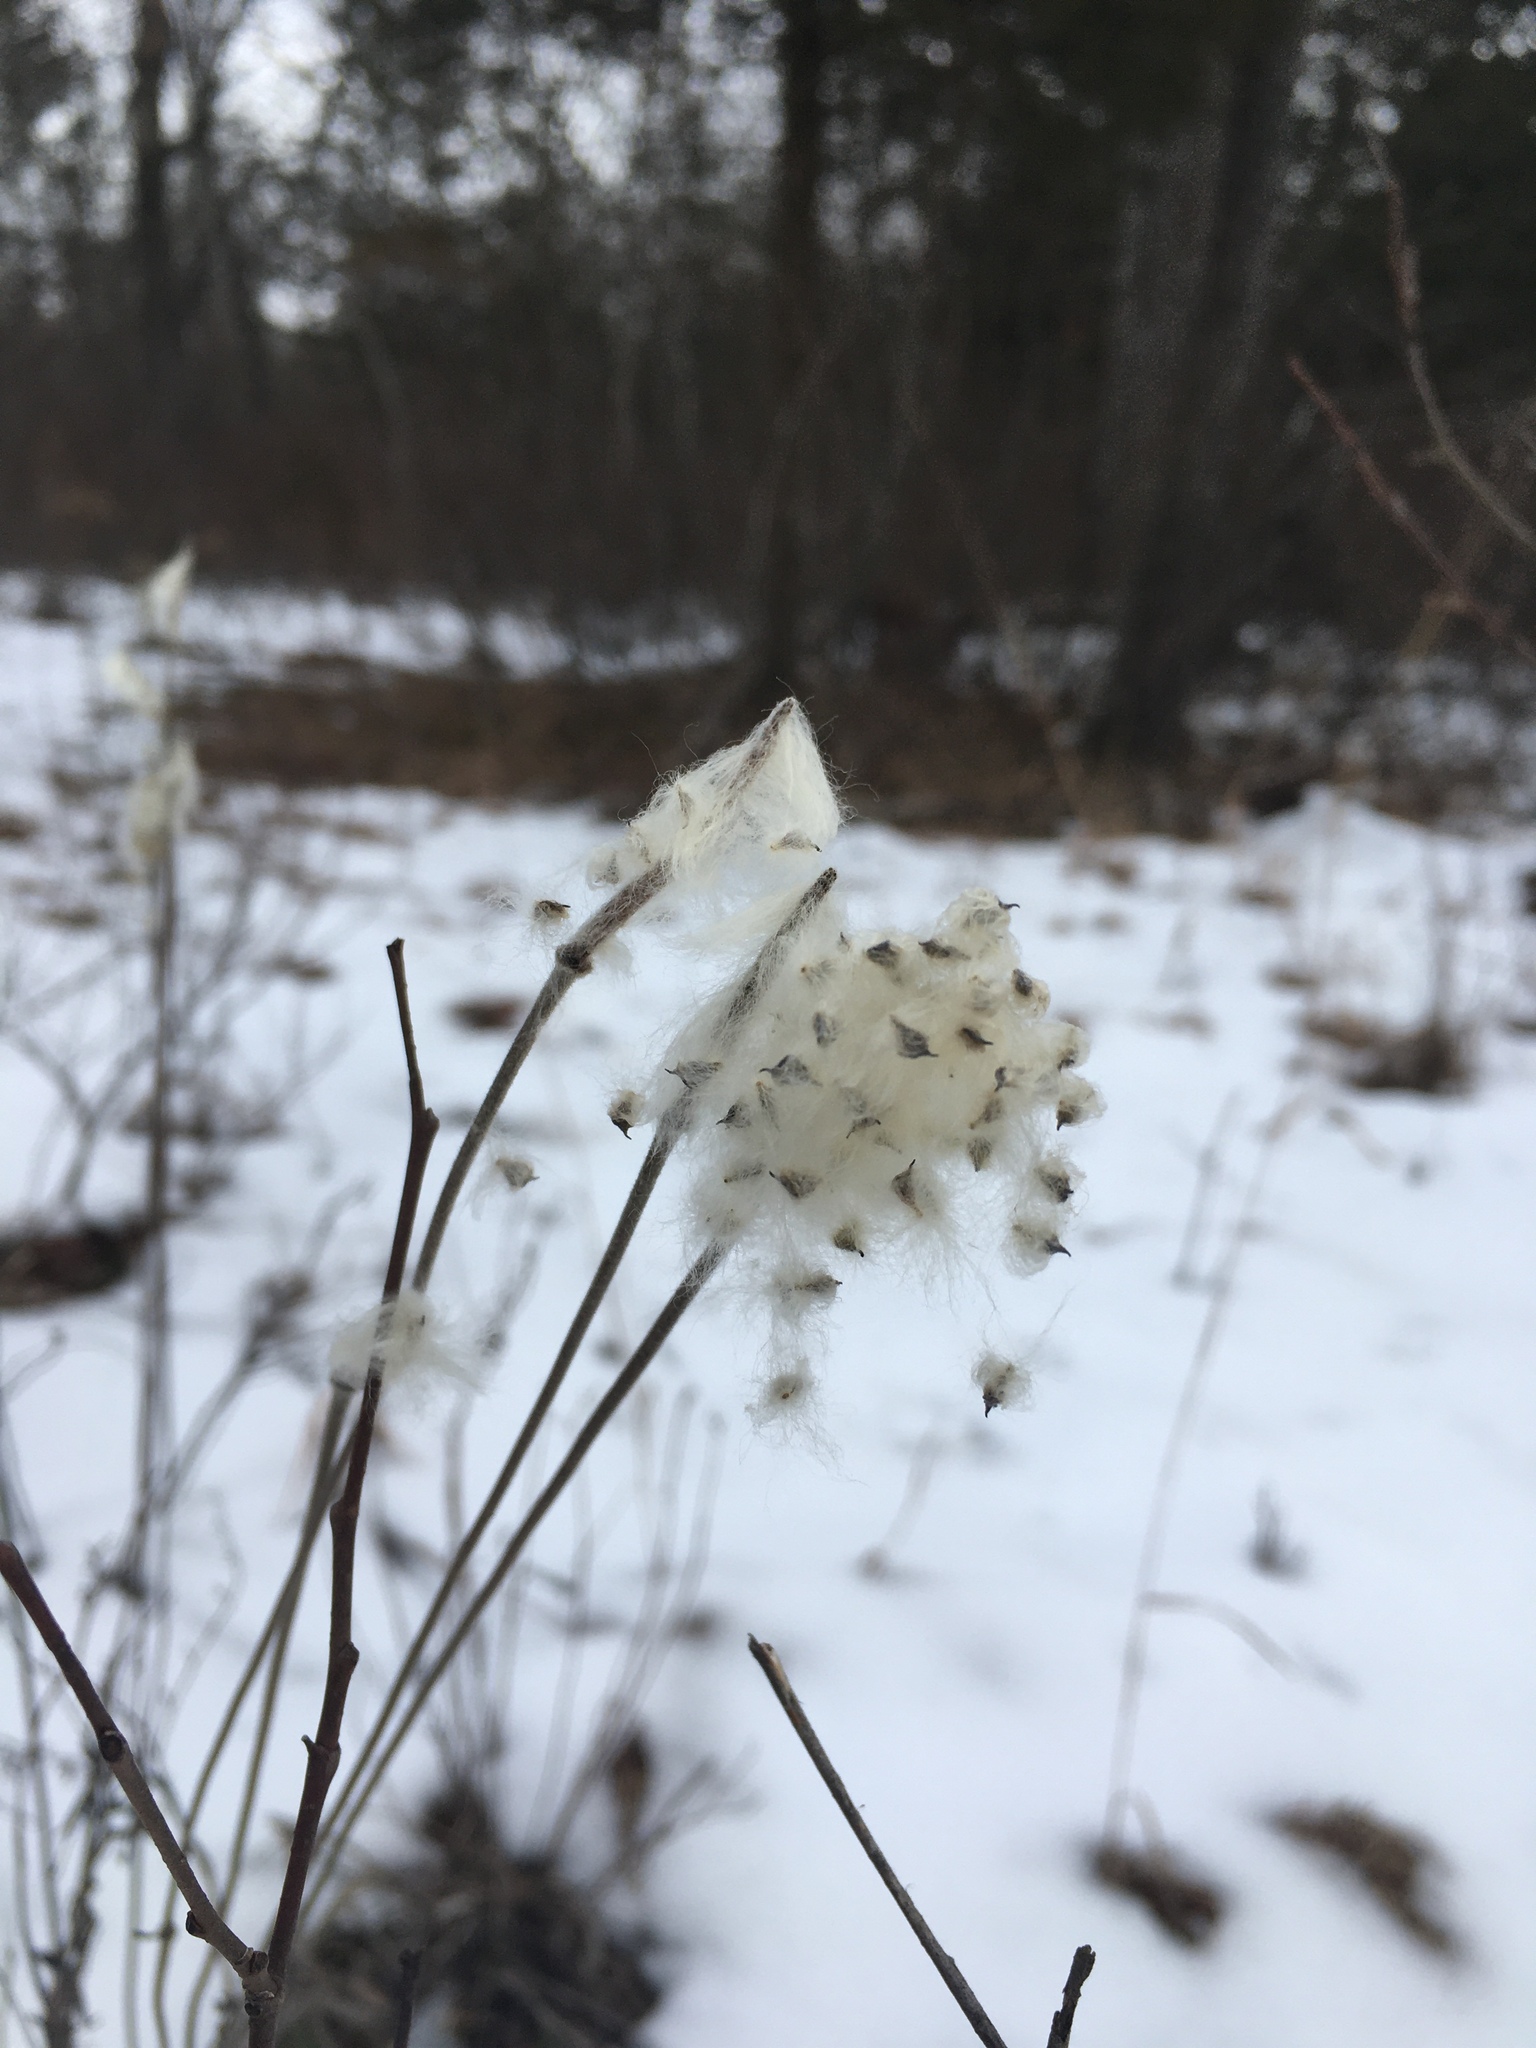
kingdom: Plantae
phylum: Tracheophyta
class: Magnoliopsida
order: Ranunculales
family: Ranunculaceae
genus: Anemone
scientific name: Anemone virginiana
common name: Tall anemone
